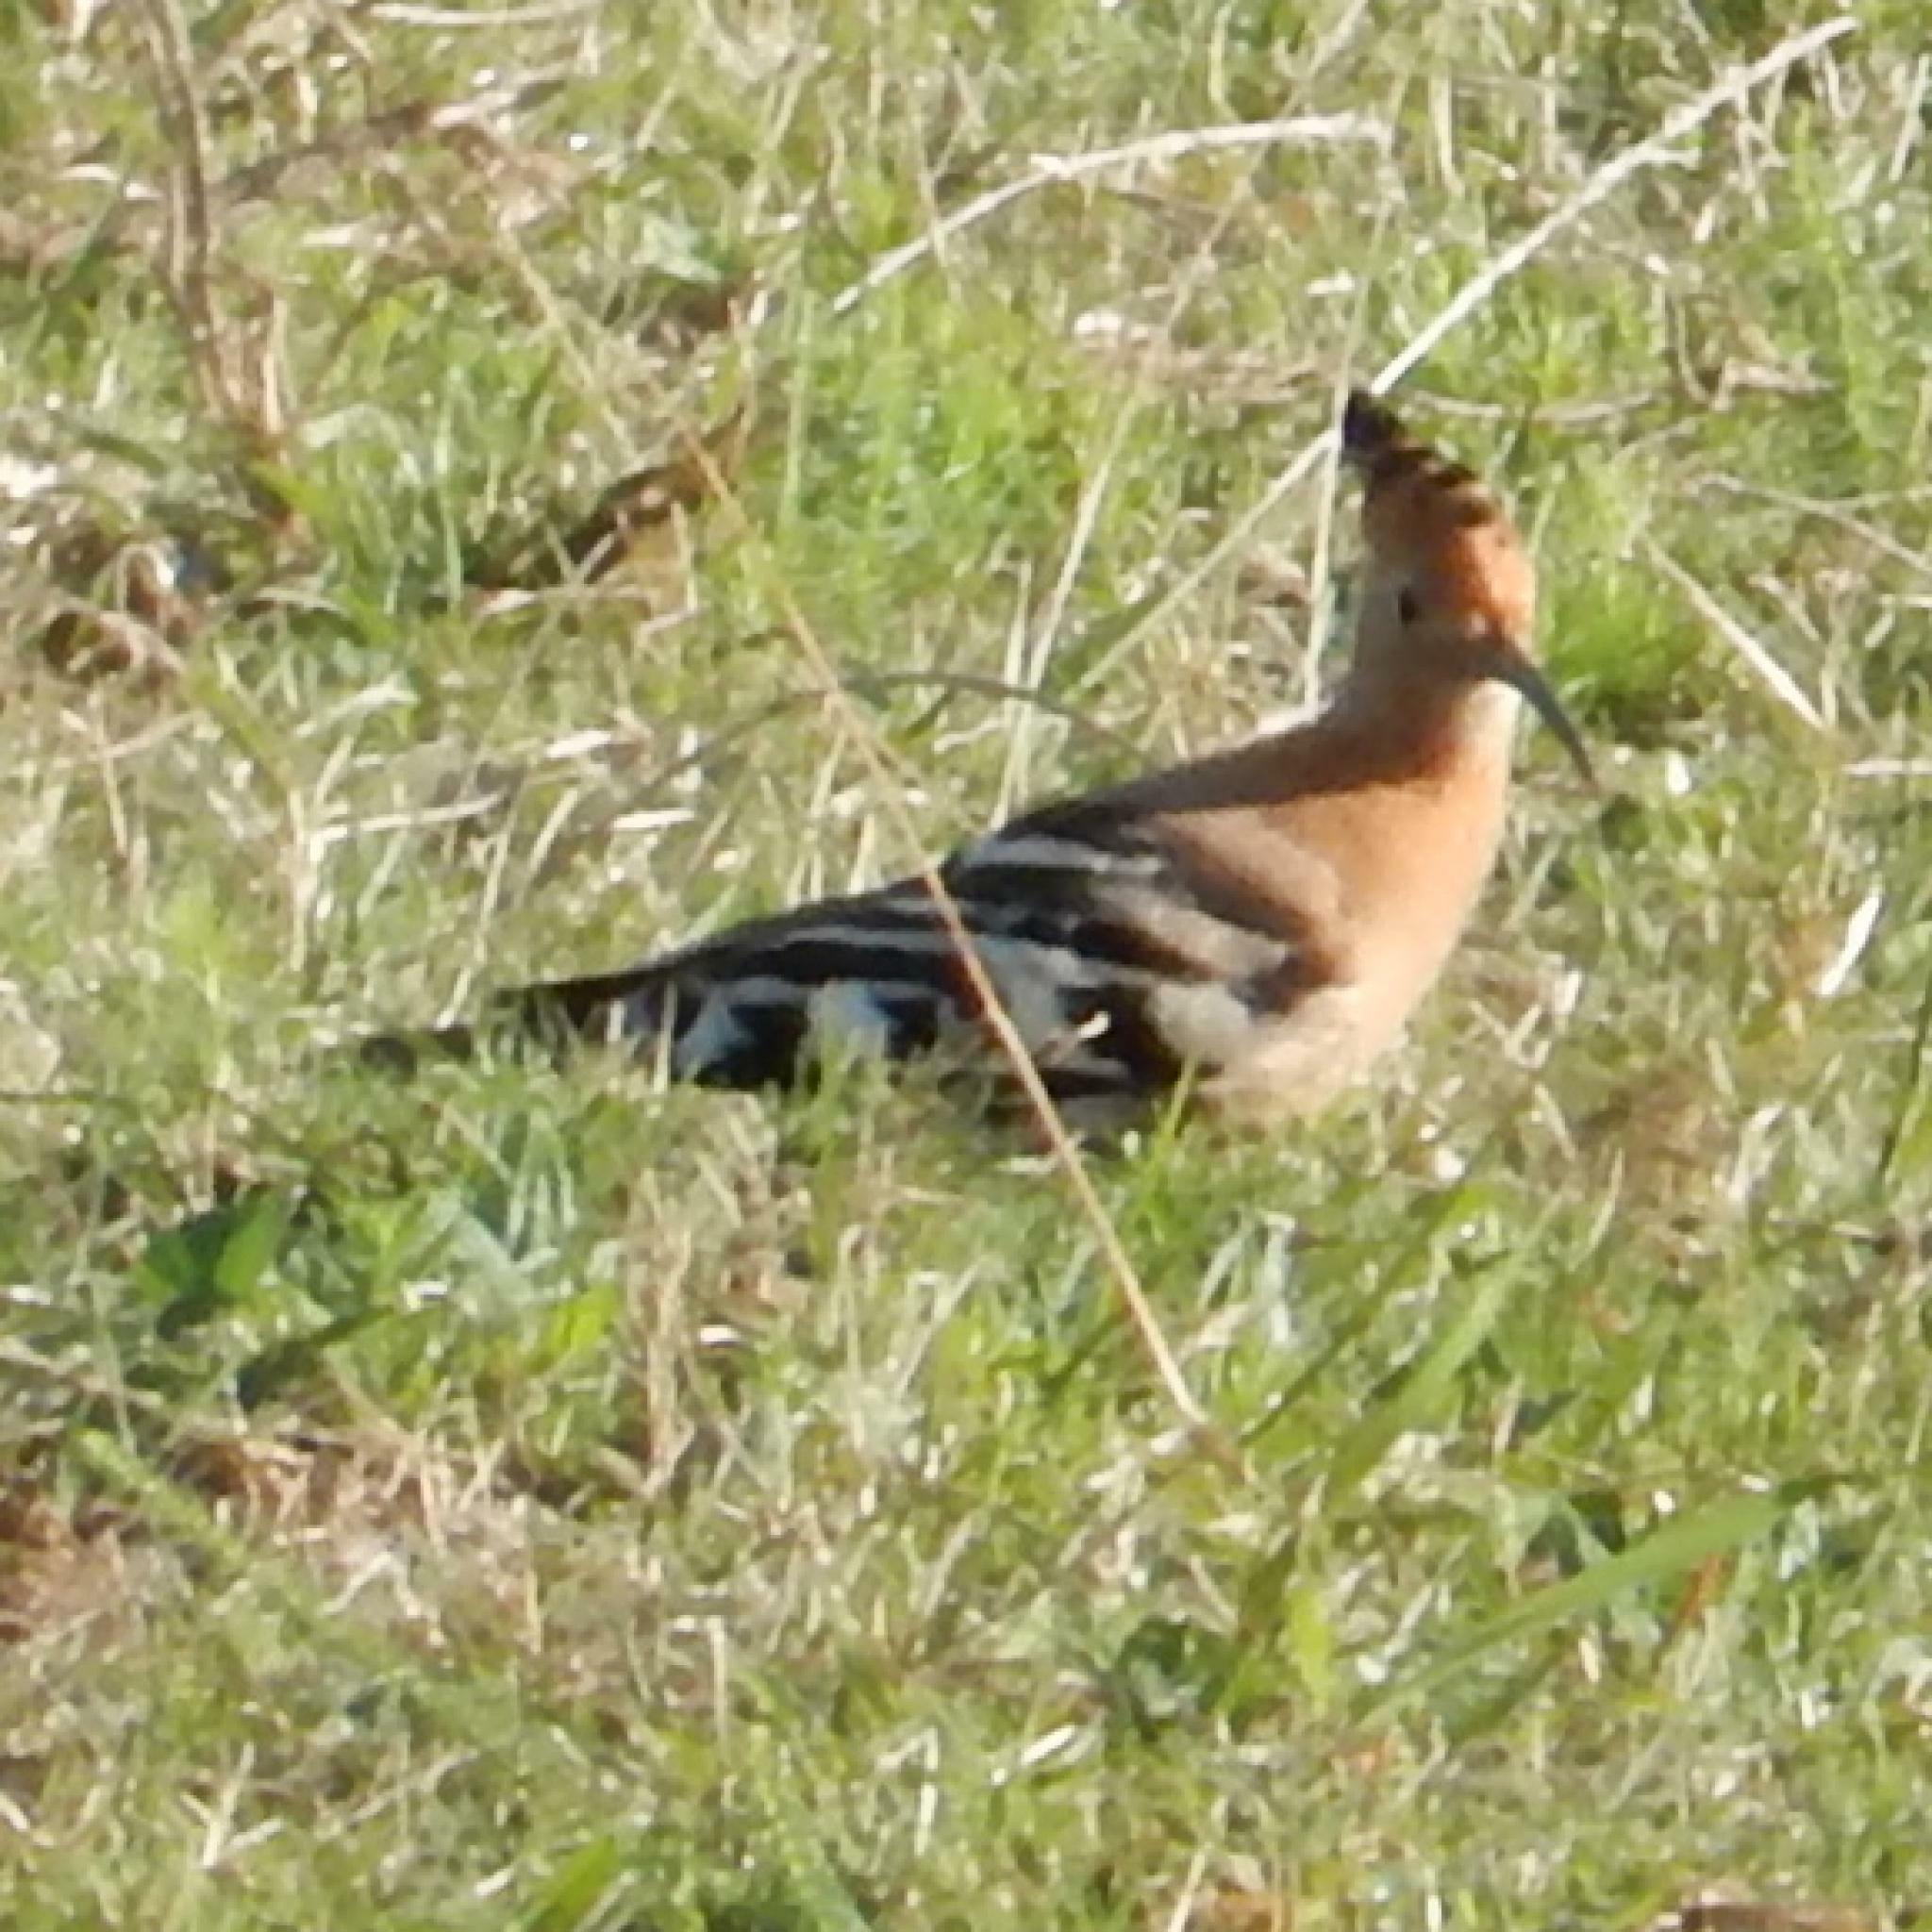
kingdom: Animalia
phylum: Chordata
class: Aves
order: Bucerotiformes
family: Upupidae
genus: Upupa
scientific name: Upupa africana
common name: African hoopoe
